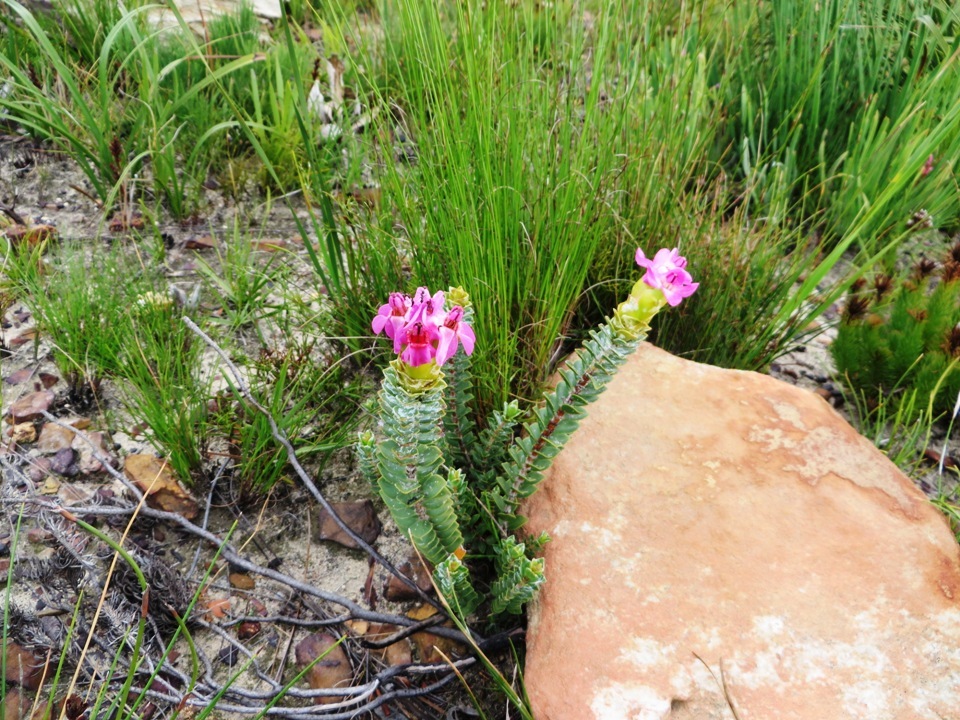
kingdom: Plantae
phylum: Tracheophyta
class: Magnoliopsida
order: Myrtales
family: Penaeaceae
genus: Saltera
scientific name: Saltera sarcocolla
